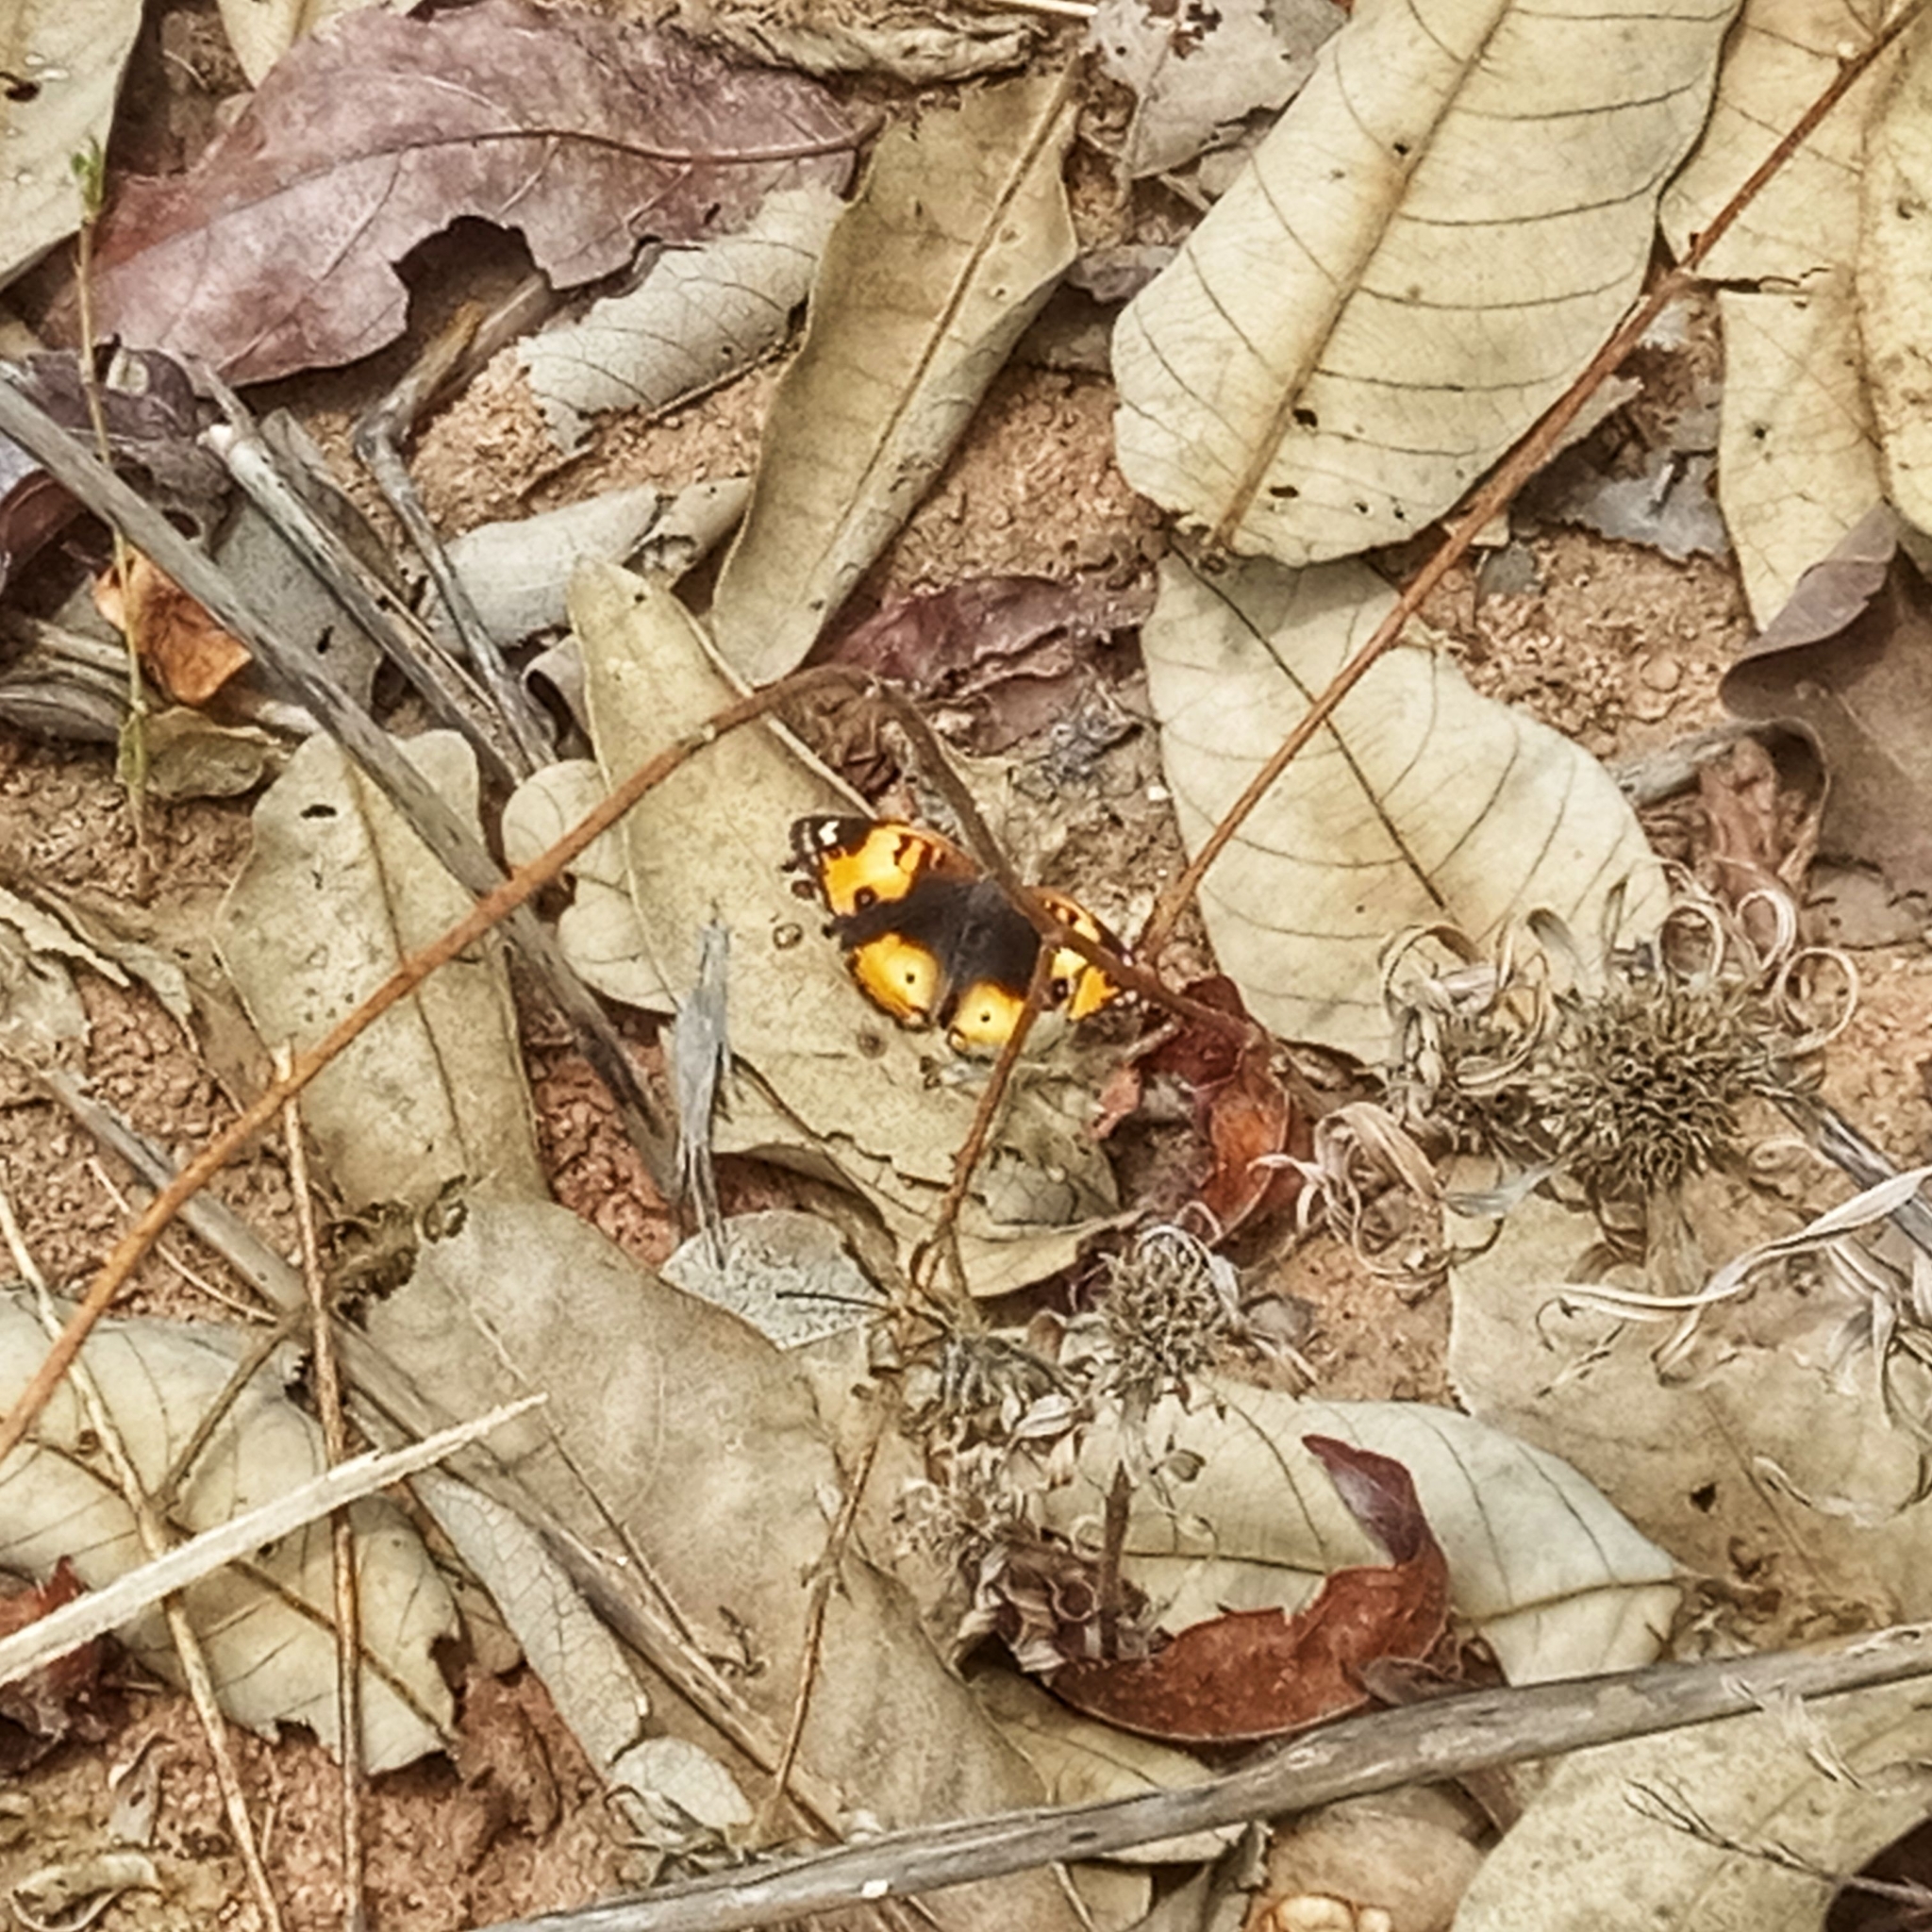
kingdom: Animalia
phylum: Arthropoda
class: Insecta
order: Lepidoptera
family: Nymphalidae
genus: Junonia
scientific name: Junonia hierta
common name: Yellow pansy
